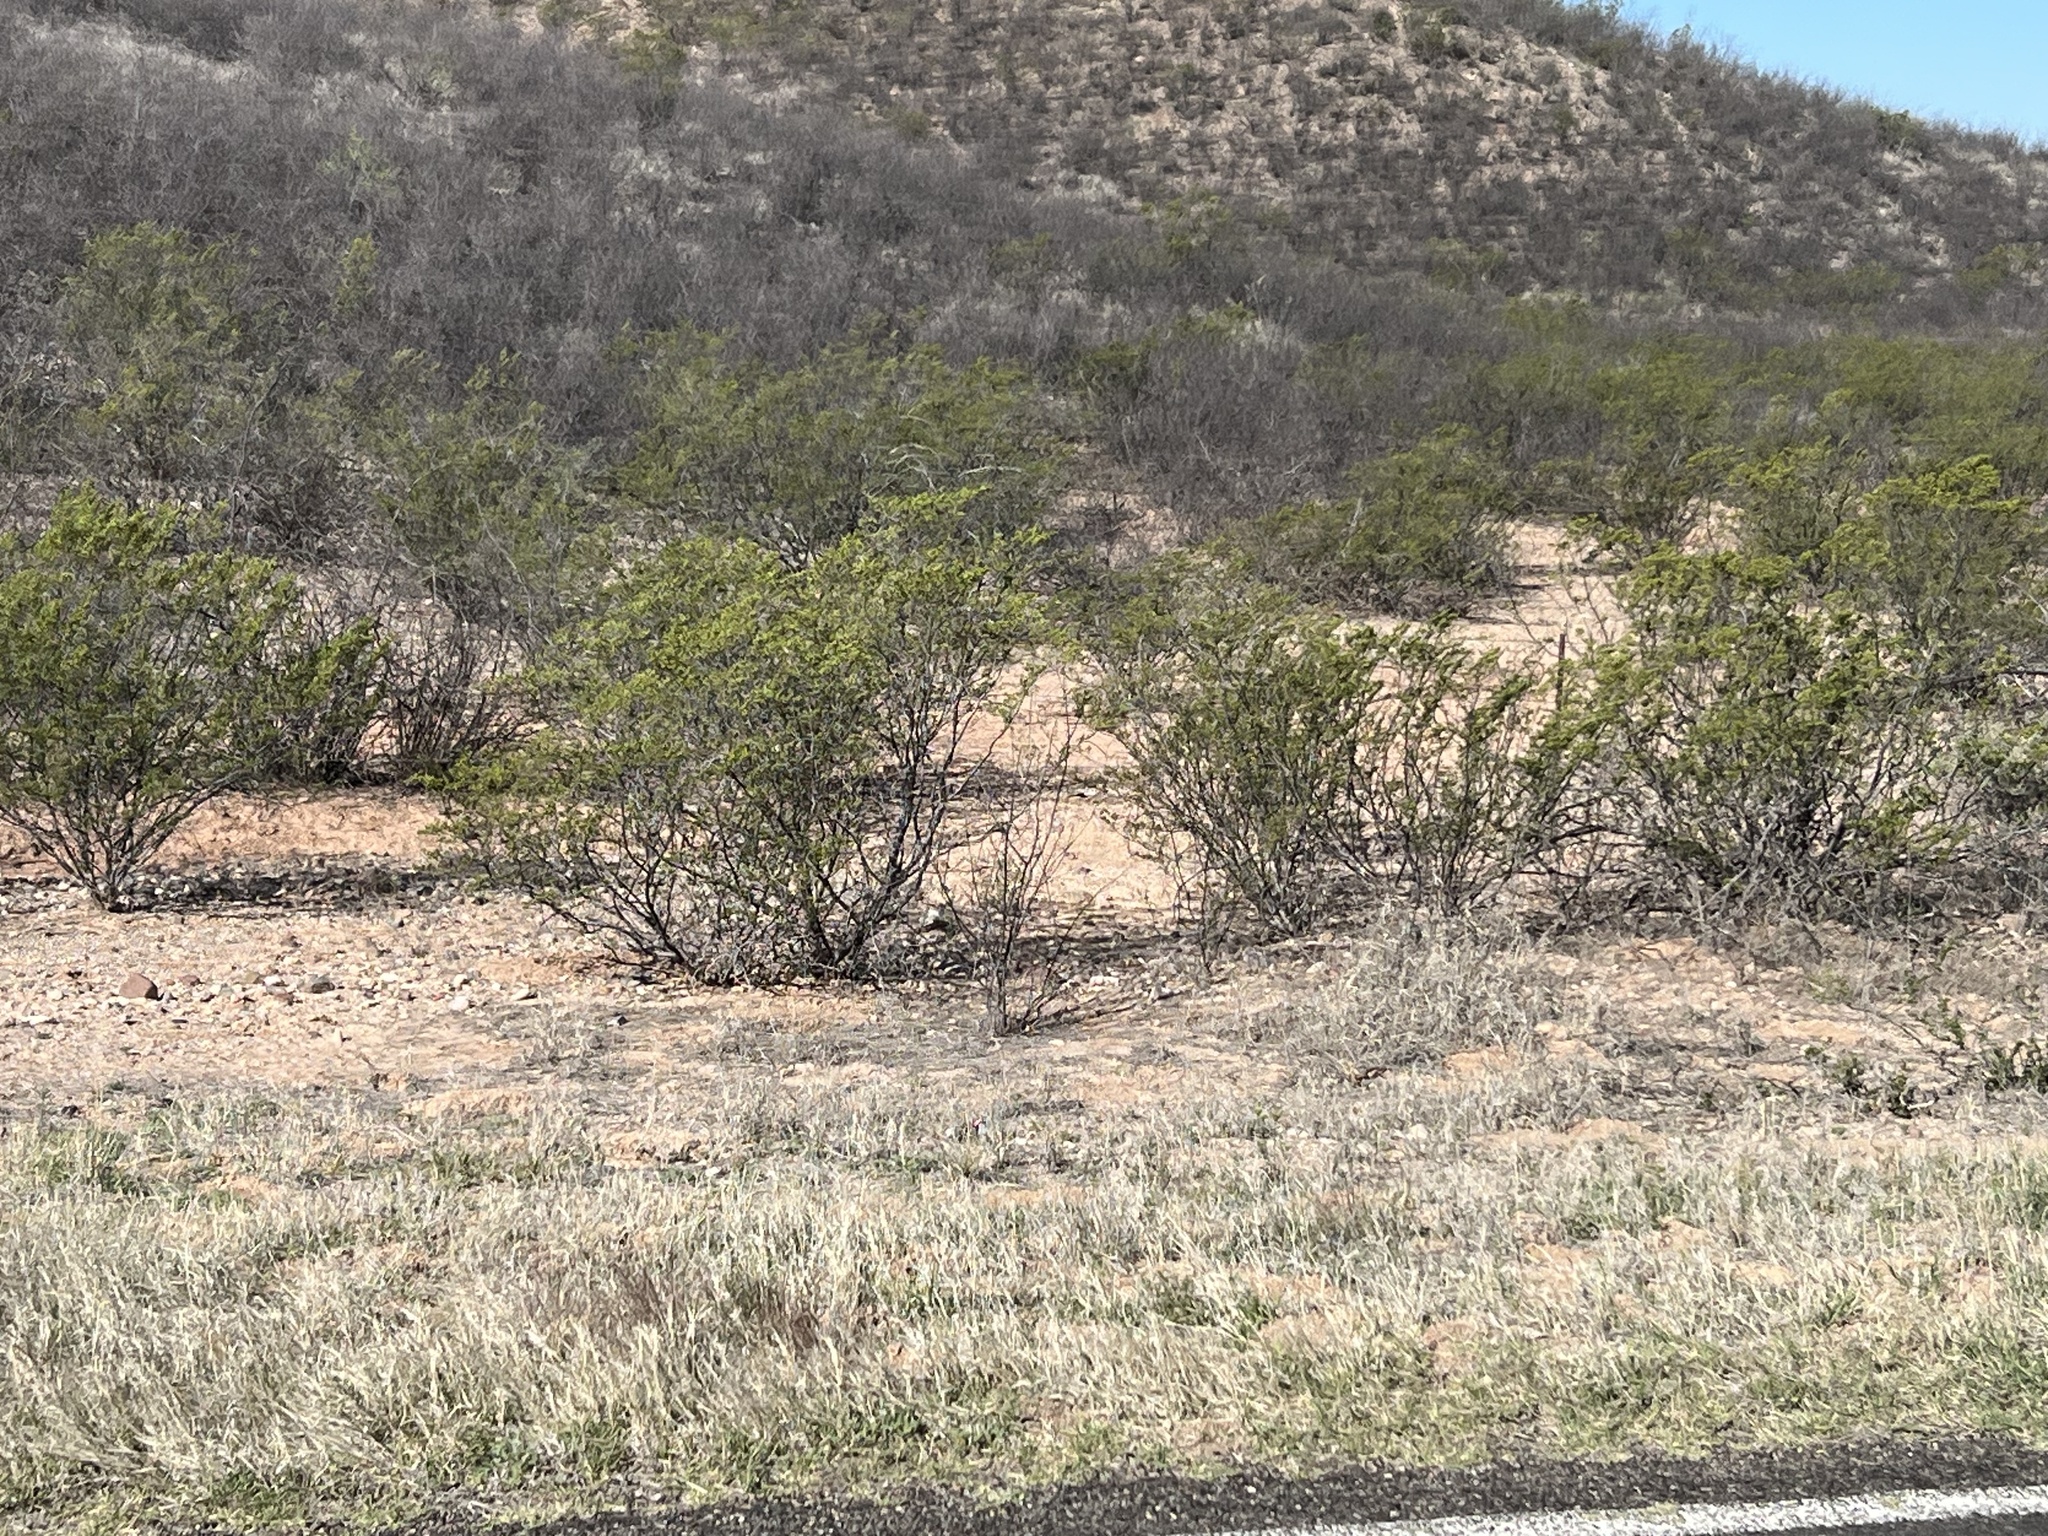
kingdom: Plantae
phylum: Tracheophyta
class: Magnoliopsida
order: Zygophyllales
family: Zygophyllaceae
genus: Larrea
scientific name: Larrea tridentata
